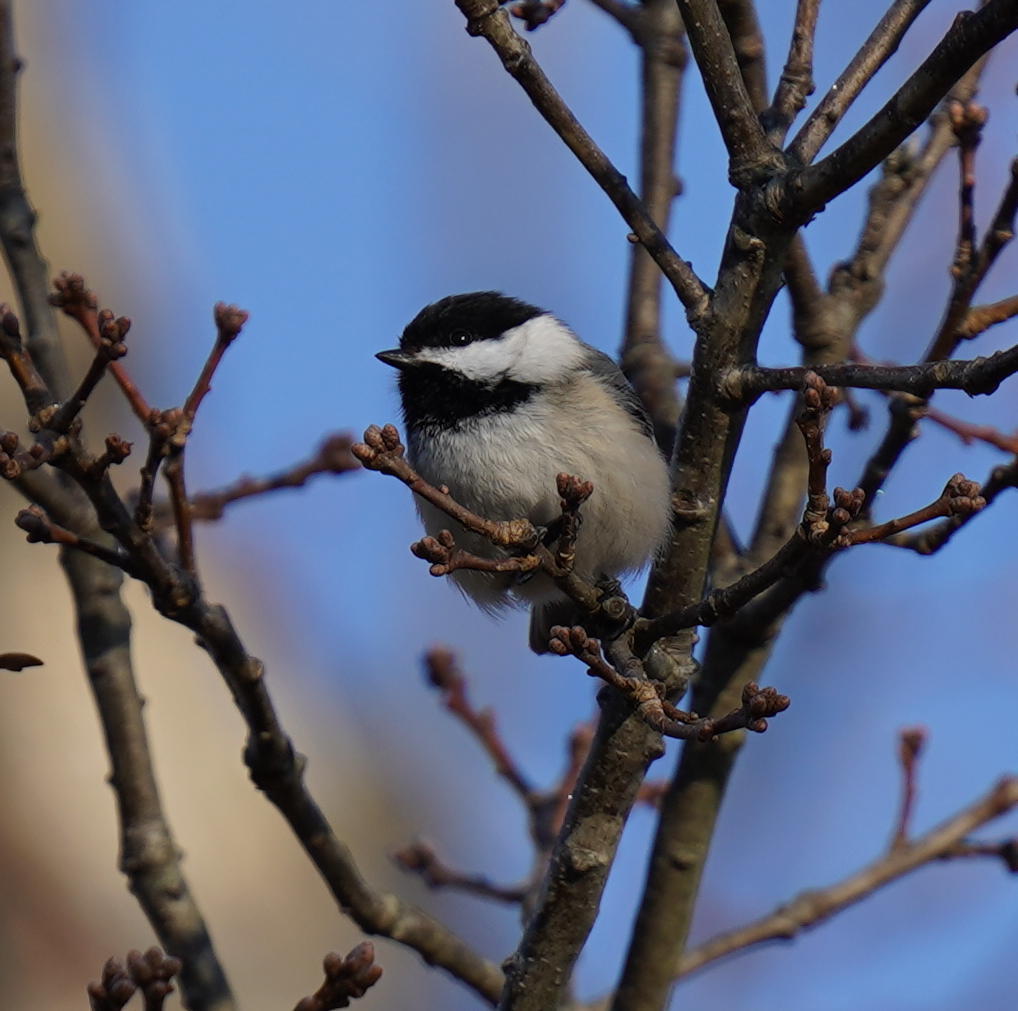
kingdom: Animalia
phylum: Chordata
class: Aves
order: Passeriformes
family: Paridae
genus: Poecile
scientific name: Poecile atricapillus
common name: Black-capped chickadee
